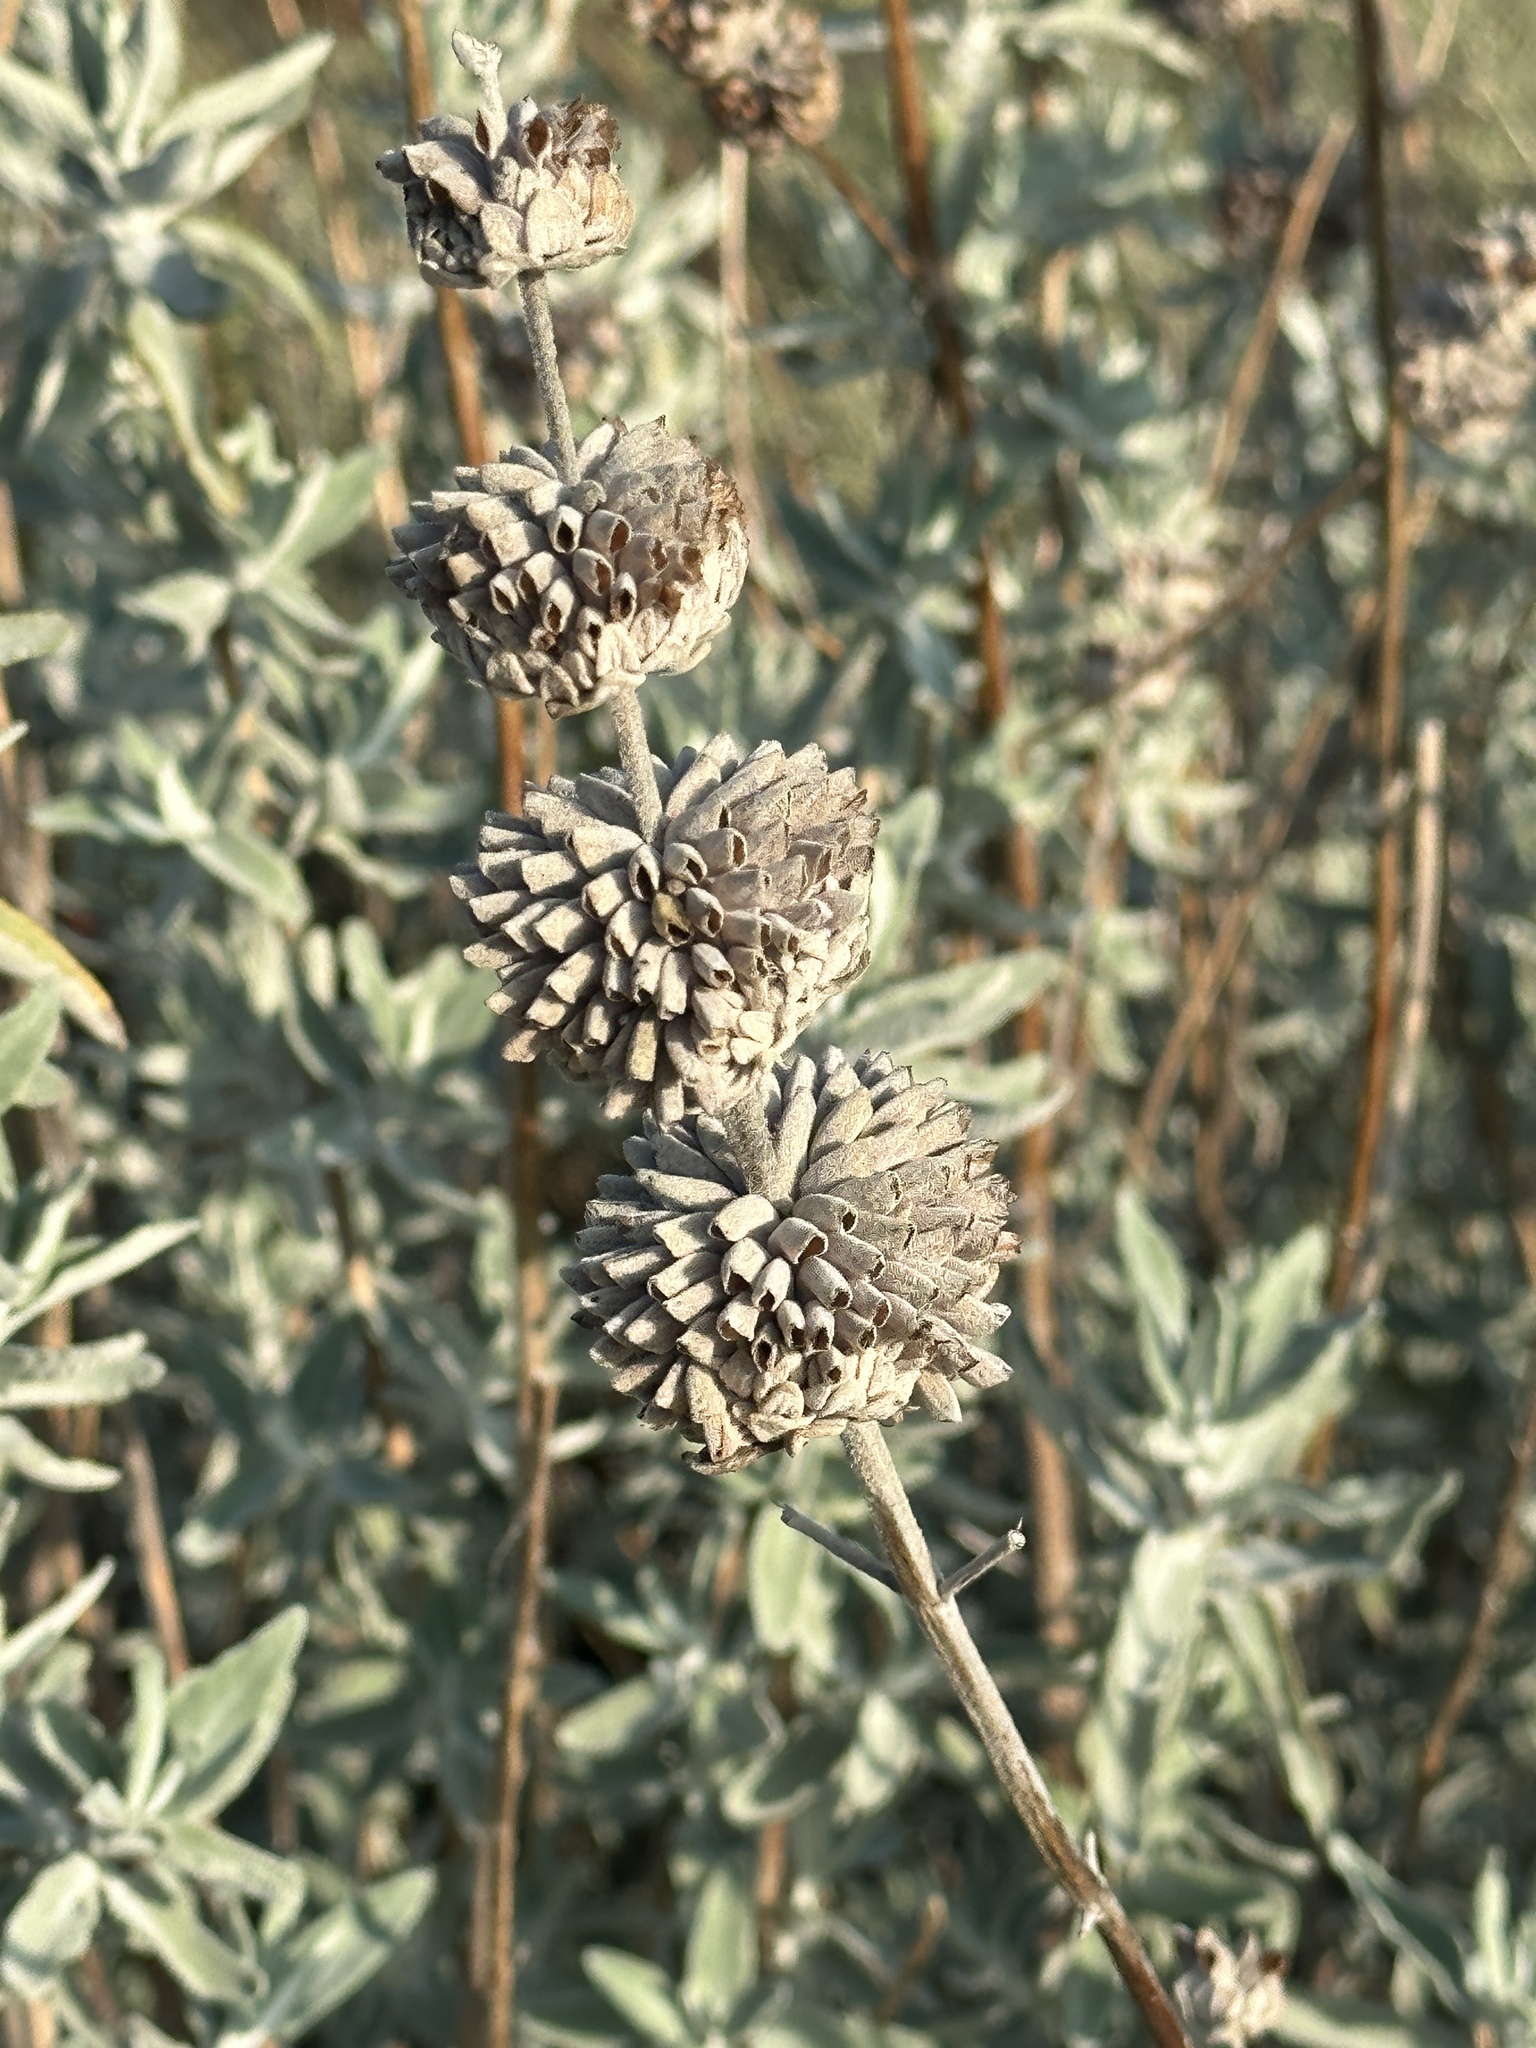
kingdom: Plantae
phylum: Tracheophyta
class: Magnoliopsida
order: Lamiales
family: Lamiaceae
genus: Salvia
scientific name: Salvia leucophylla
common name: Purple sage
